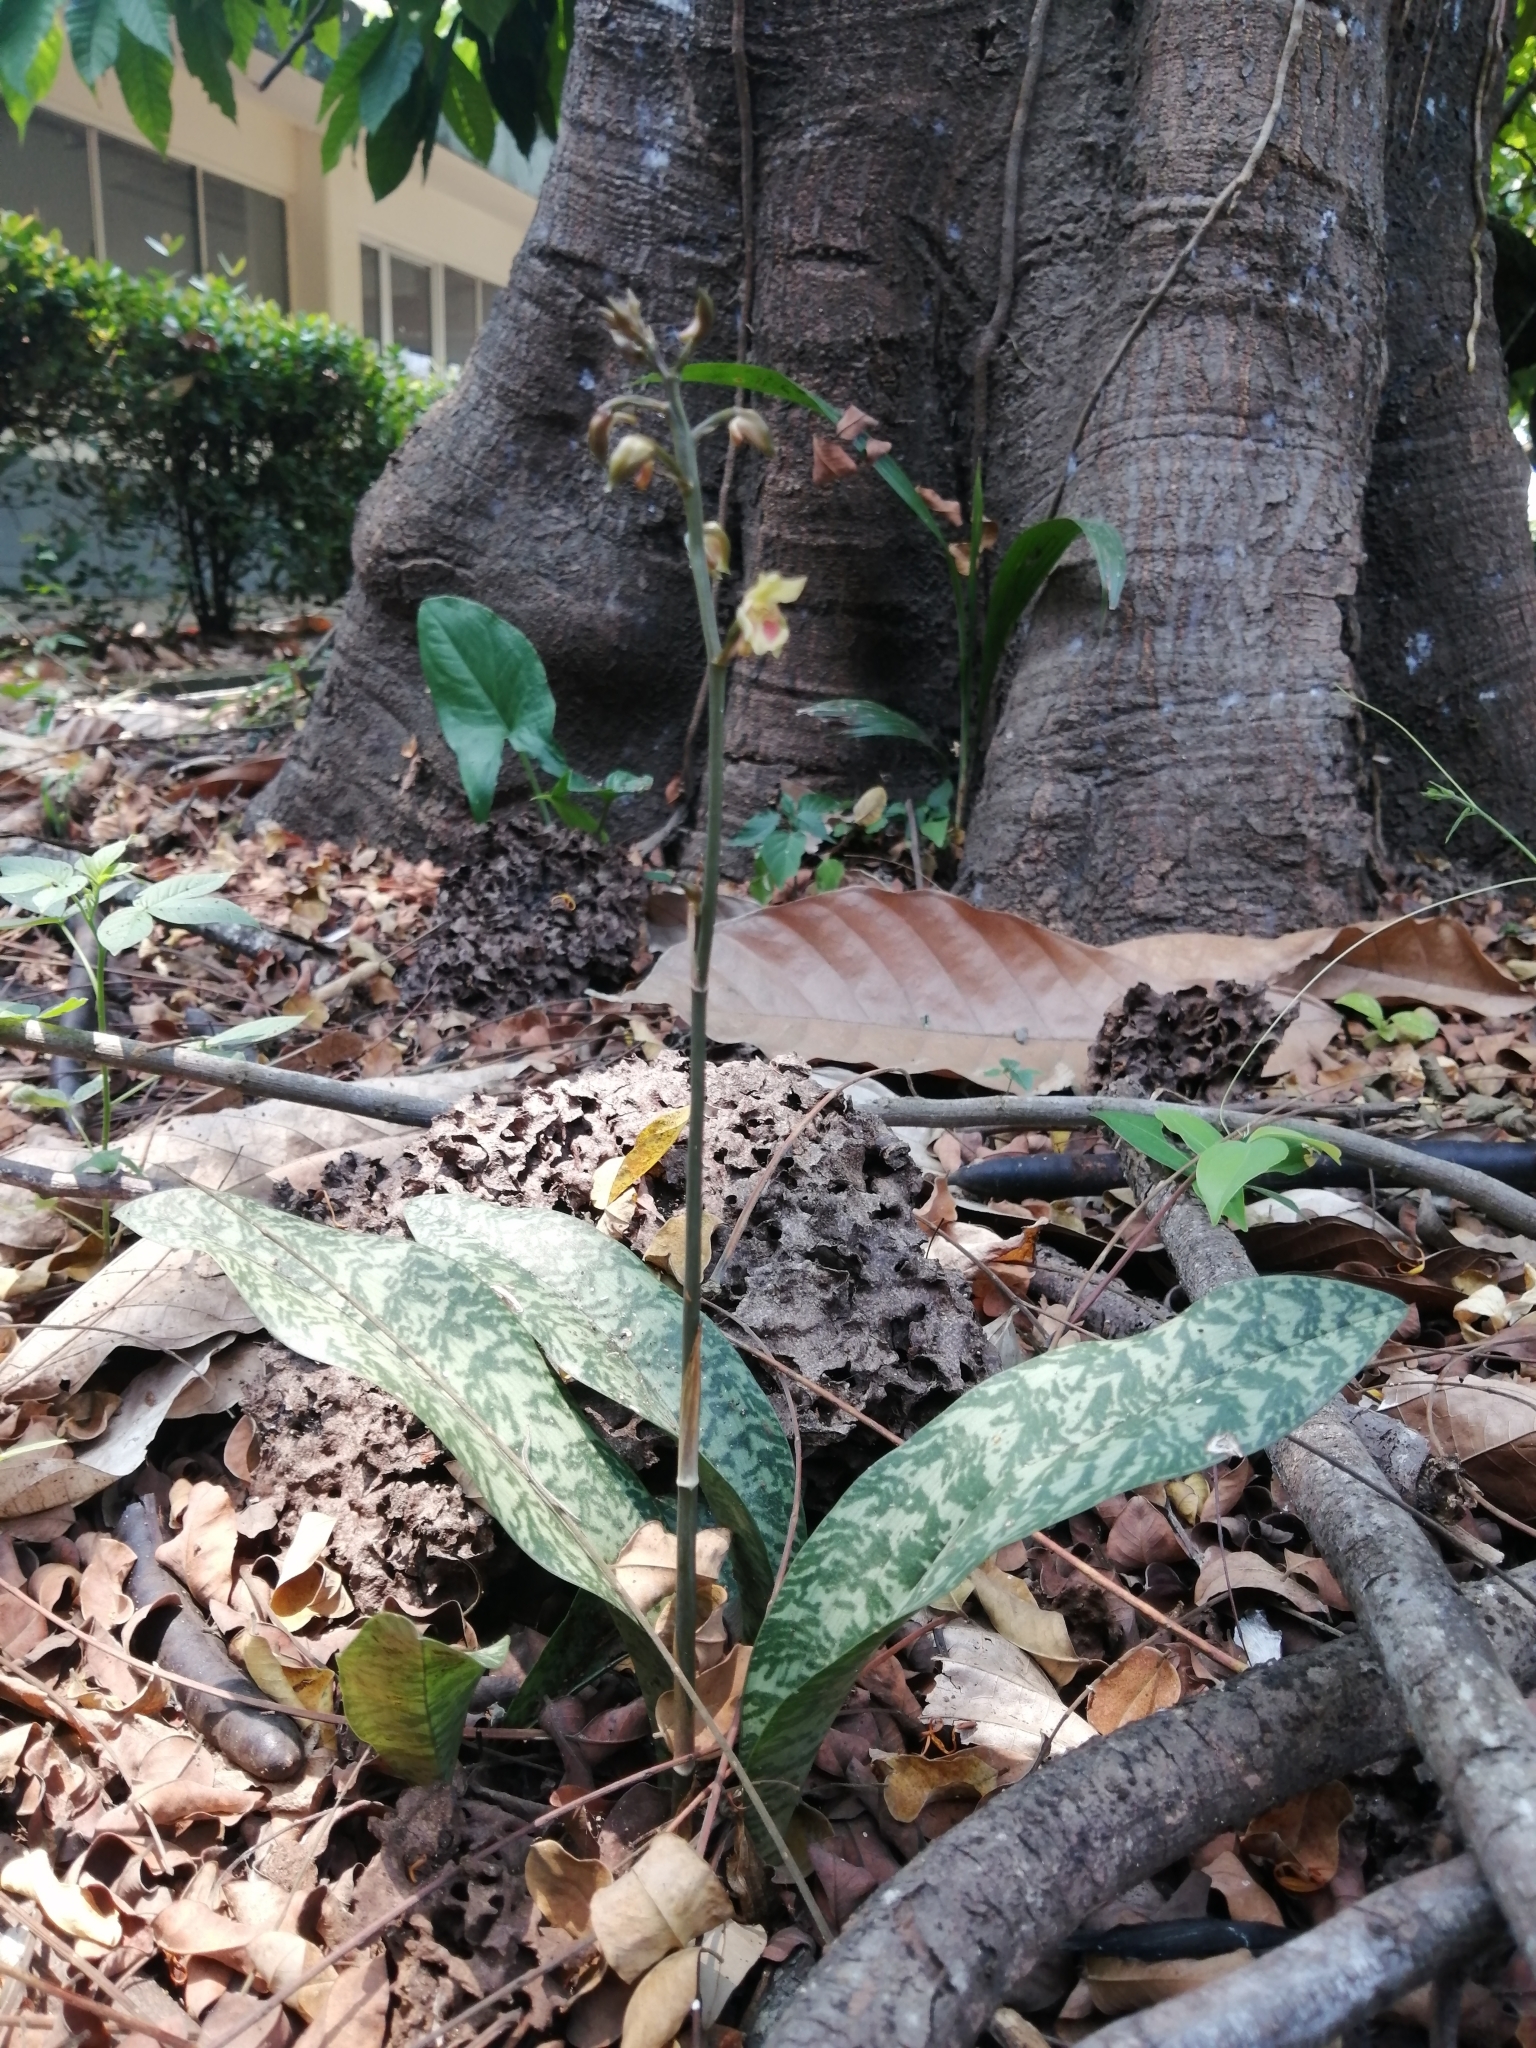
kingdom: Plantae
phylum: Tracheophyta
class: Liliopsida
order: Asparagales
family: Orchidaceae
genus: Eulophia
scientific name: Eulophia maculata
